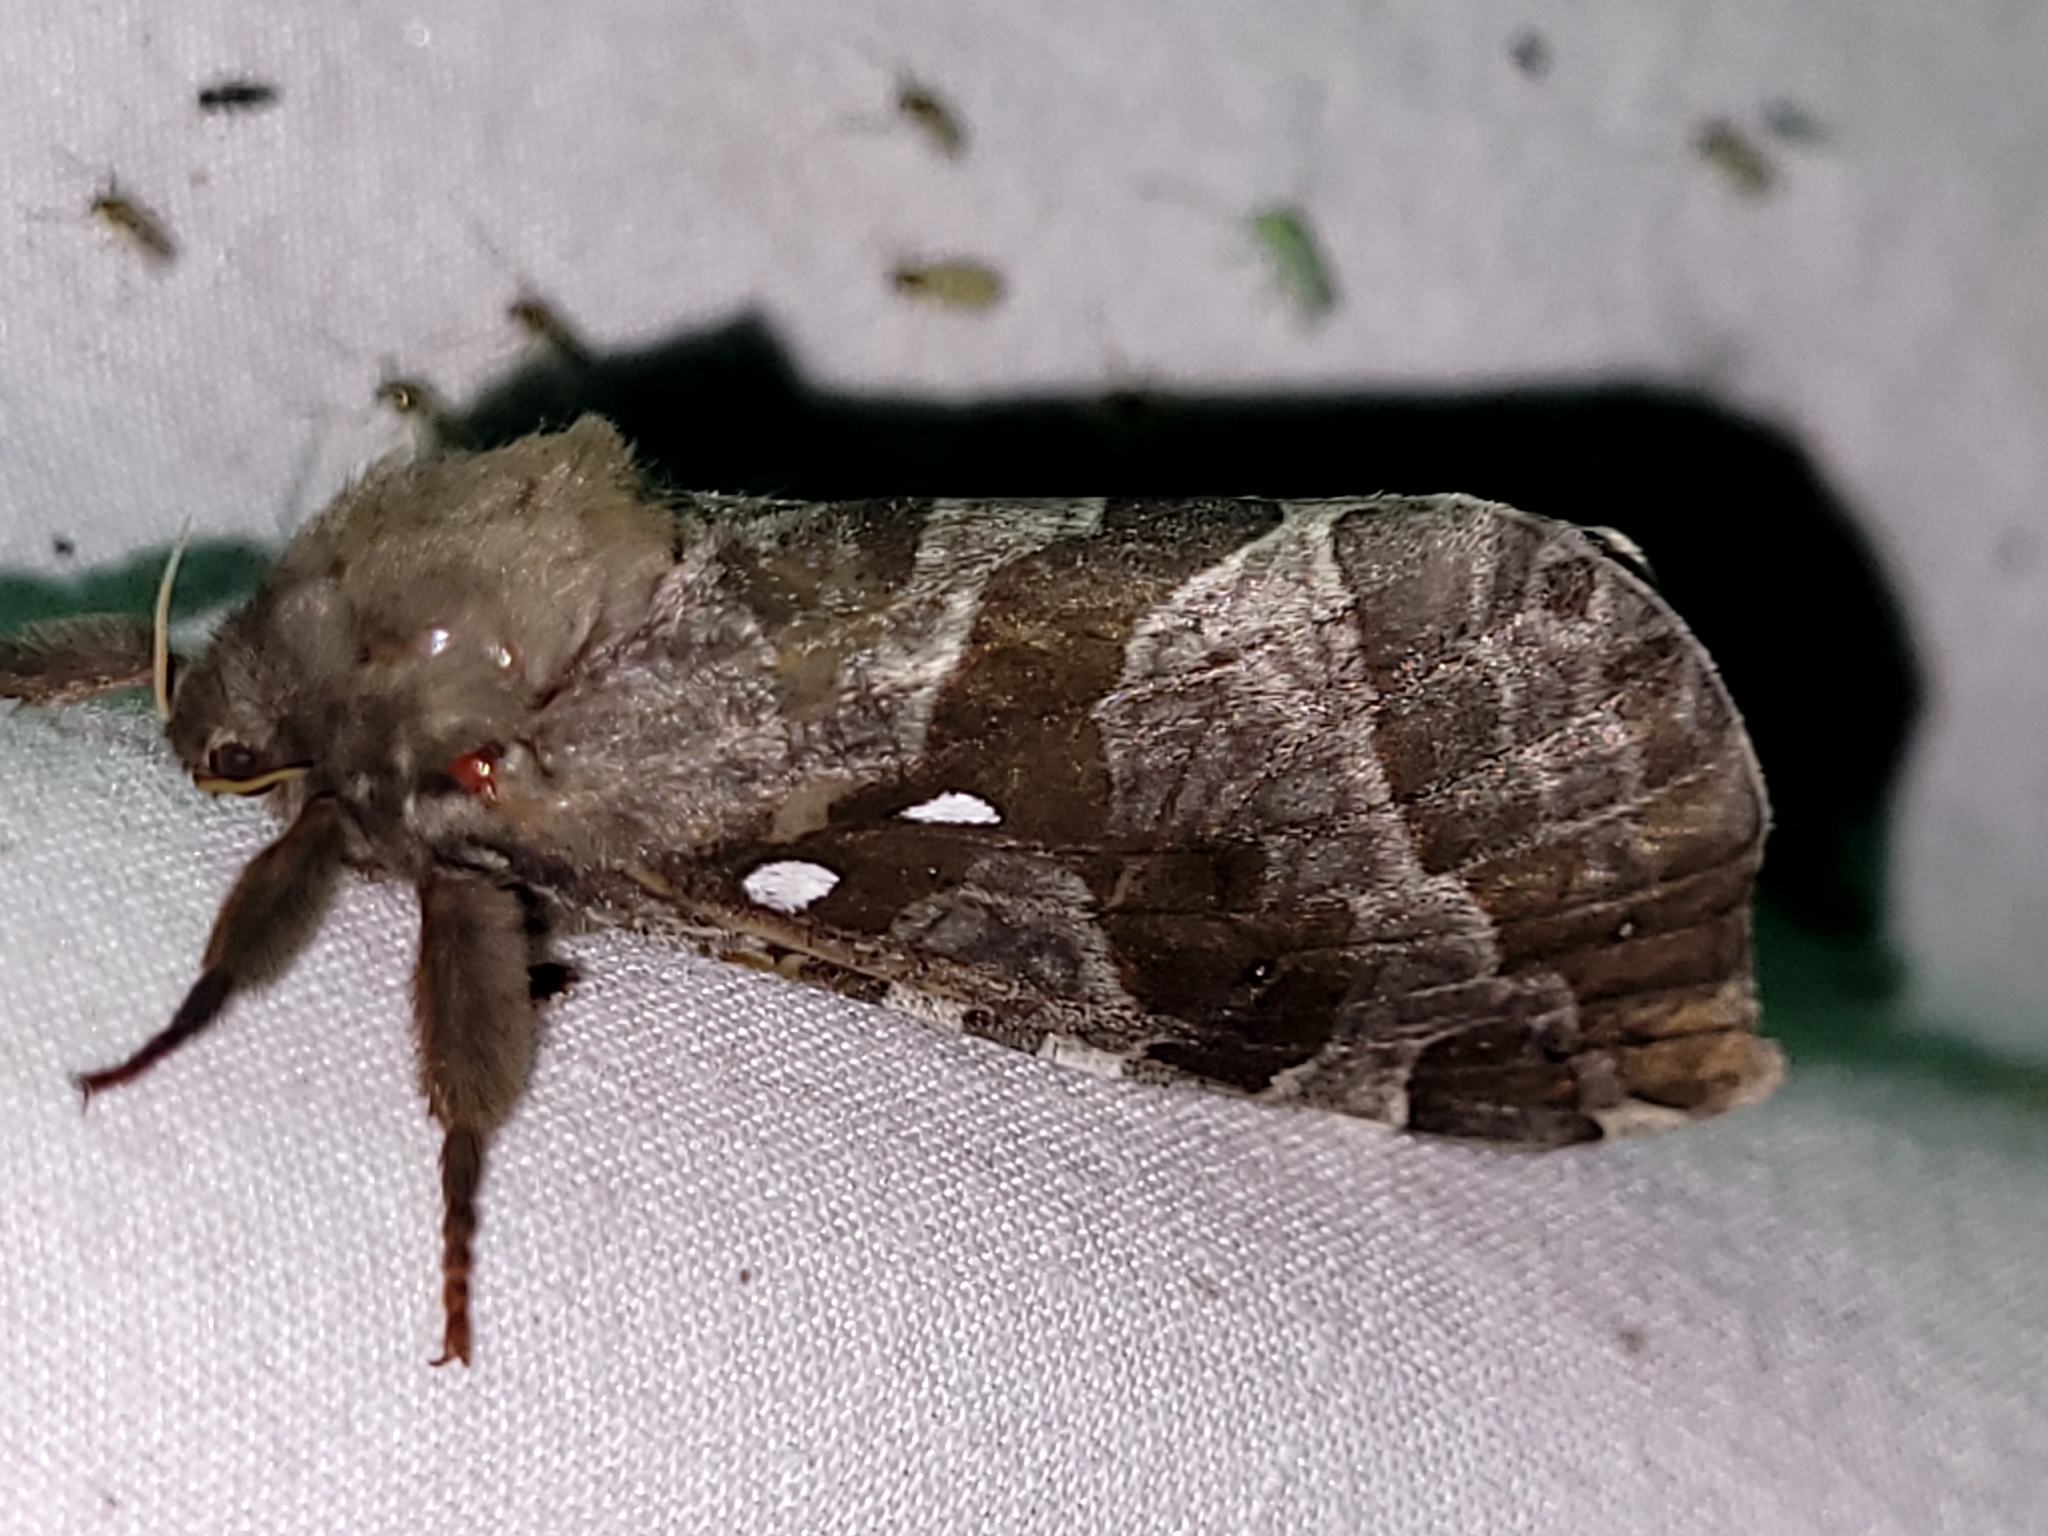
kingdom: Animalia
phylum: Arthropoda
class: Insecta
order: Lepidoptera
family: Hepialidae
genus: Sthenopis
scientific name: Sthenopis purpurascens
